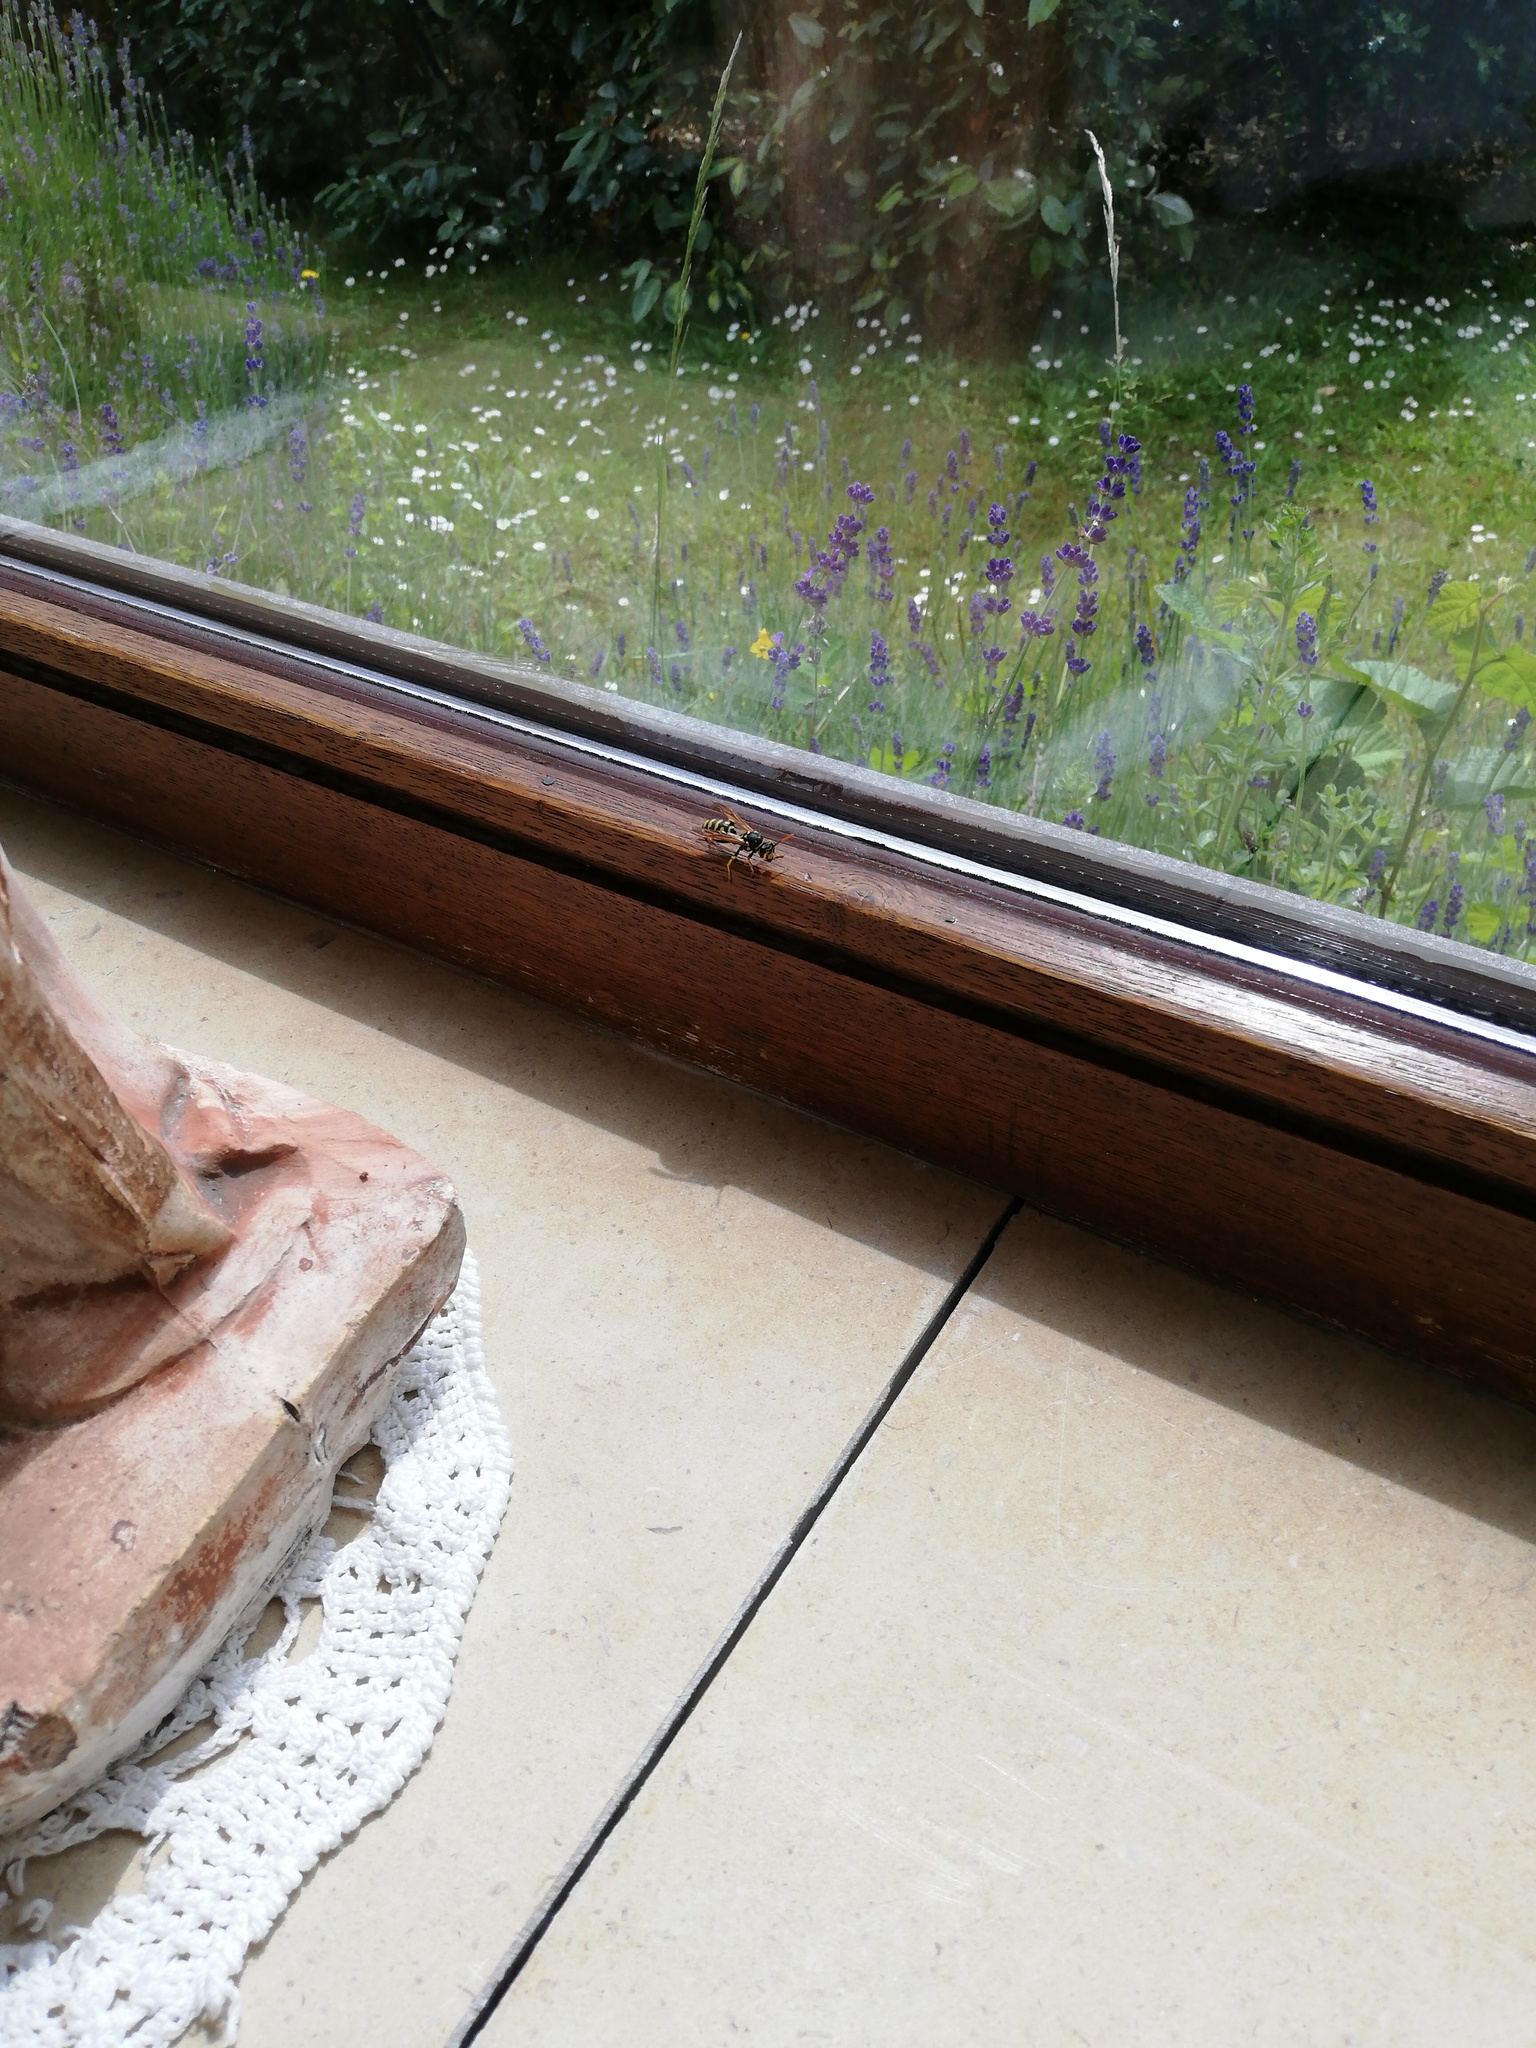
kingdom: Animalia
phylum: Arthropoda
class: Insecta
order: Hymenoptera
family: Eumenidae
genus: Polistes
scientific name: Polistes dominula
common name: Paper wasp
